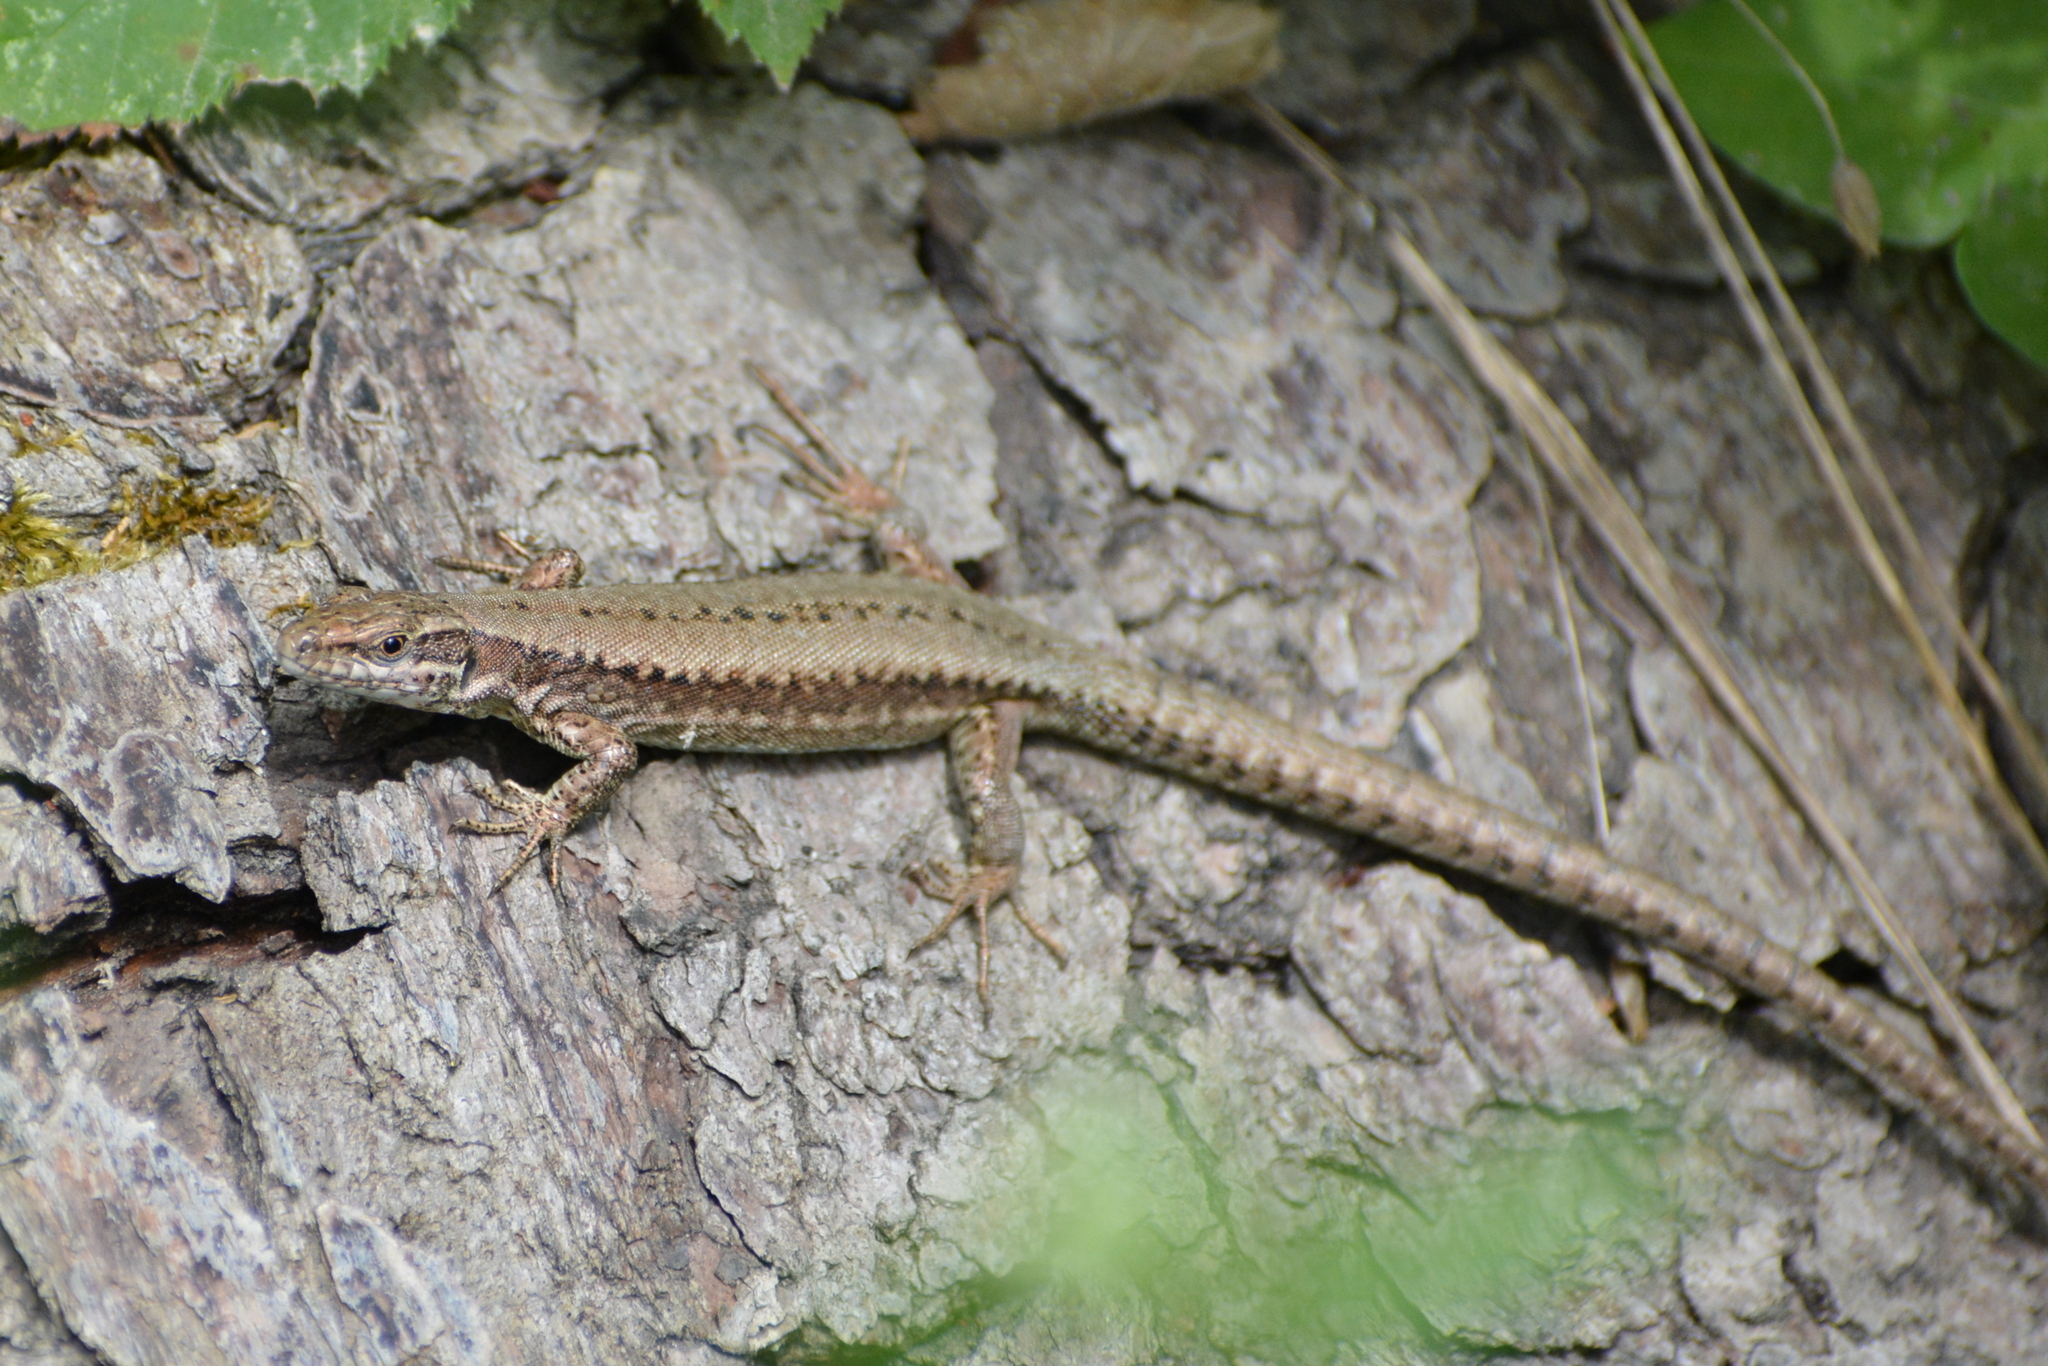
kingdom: Animalia
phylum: Chordata
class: Squamata
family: Lacertidae
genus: Podarcis
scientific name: Podarcis muralis
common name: Common wall lizard
